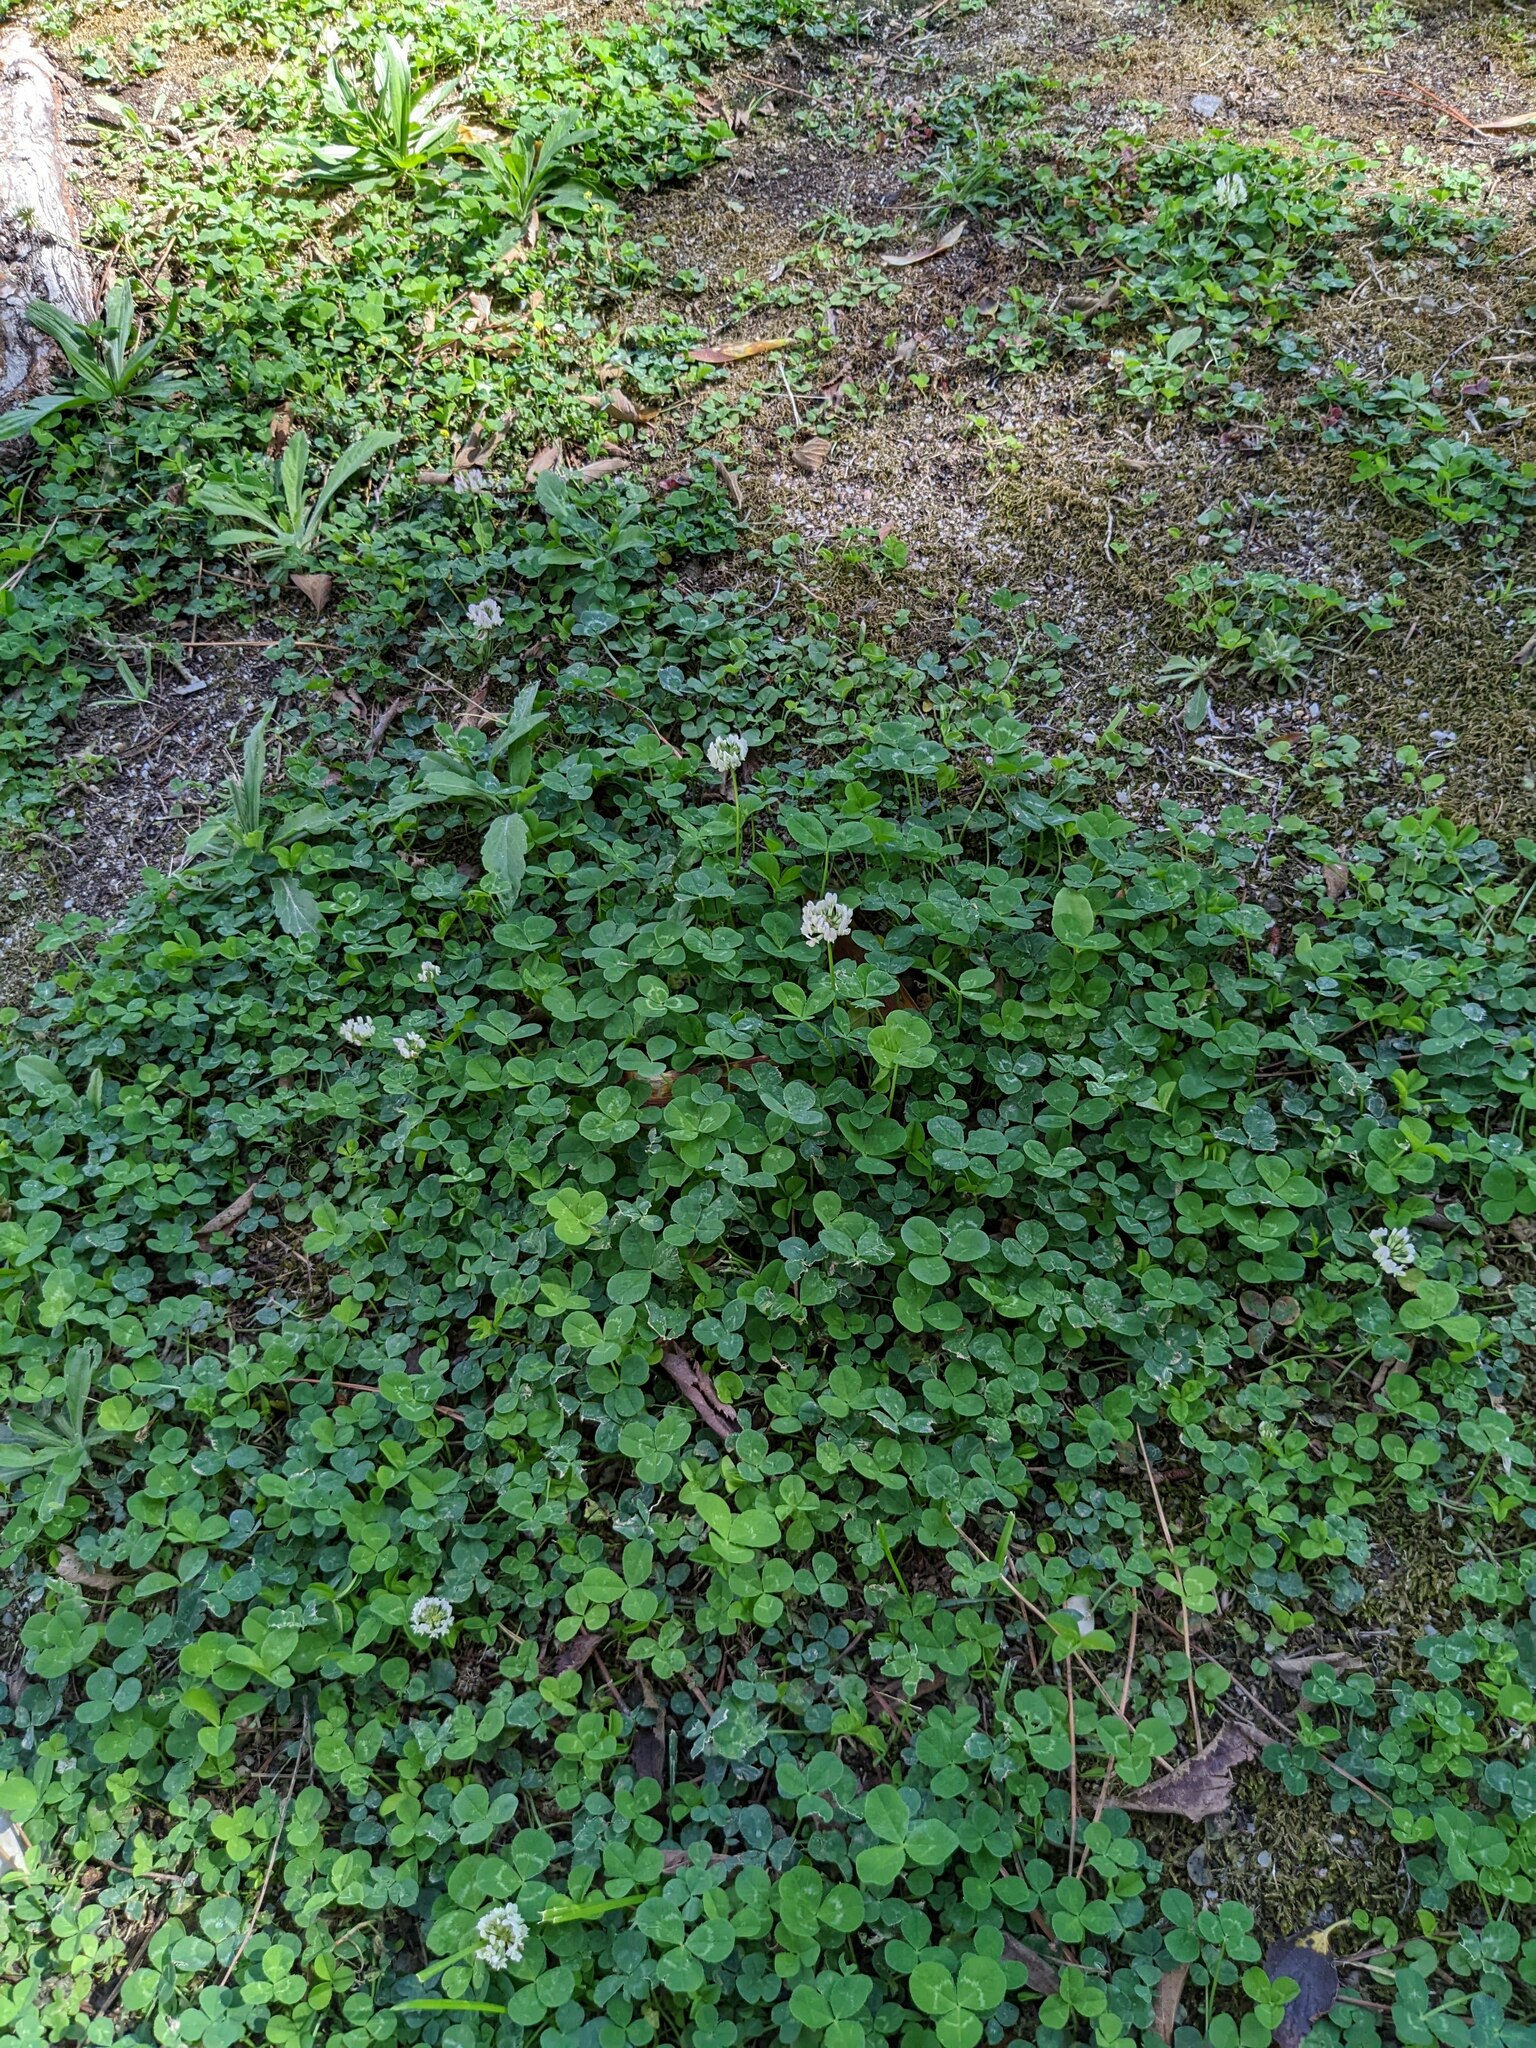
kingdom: Plantae
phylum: Tracheophyta
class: Magnoliopsida
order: Fabales
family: Fabaceae
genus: Trifolium
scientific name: Trifolium repens
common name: White clover
